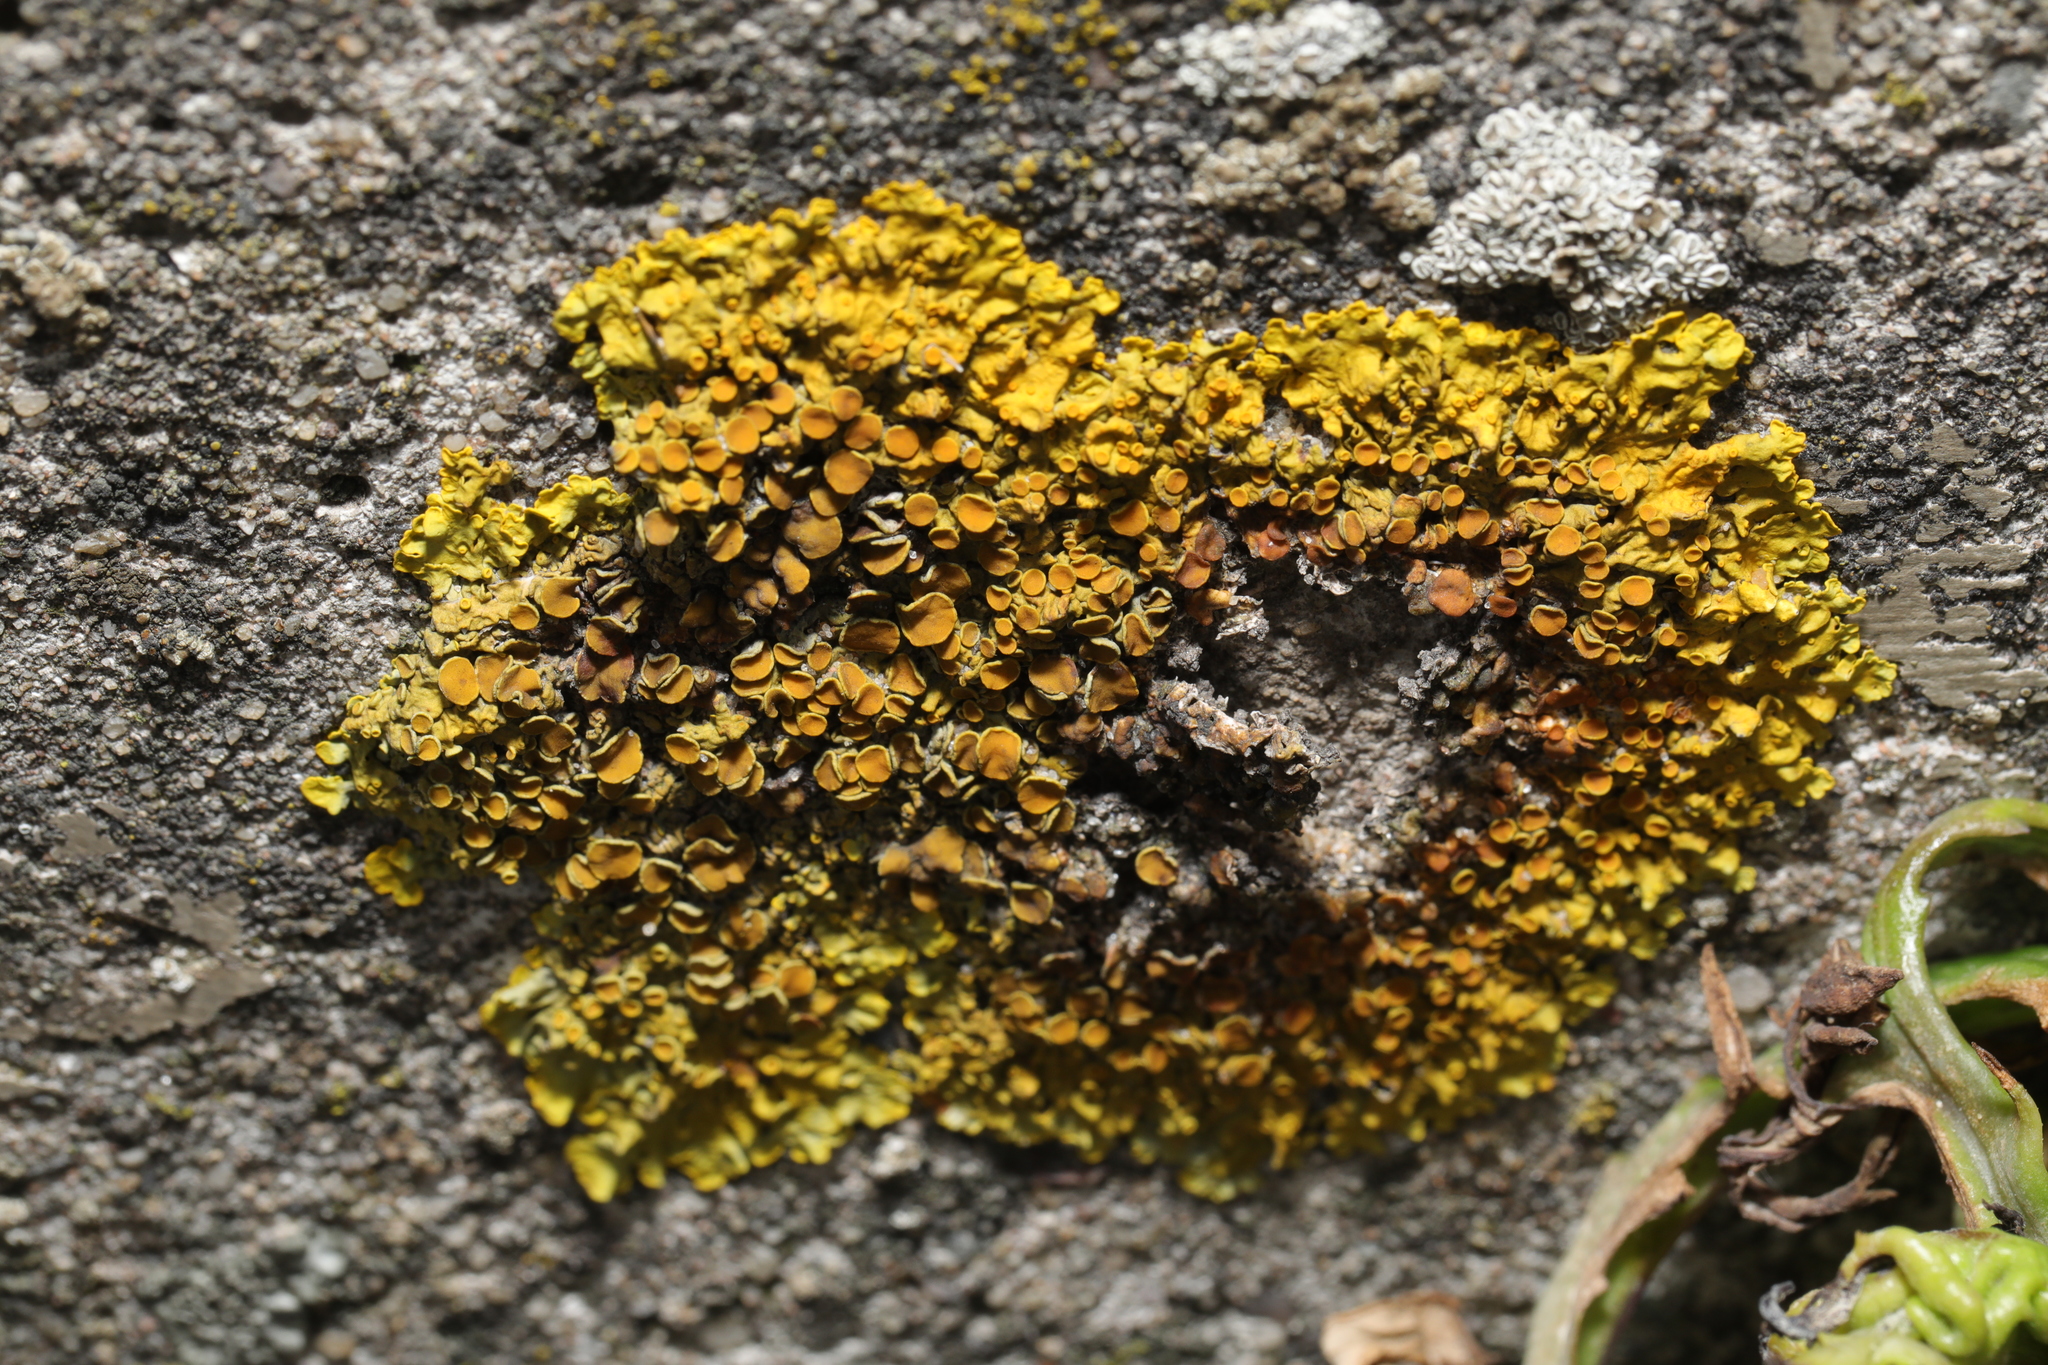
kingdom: Fungi
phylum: Ascomycota
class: Lecanoromycetes
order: Teloschistales
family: Teloschistaceae
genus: Xanthoria
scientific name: Xanthoria parietina
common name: Common orange lichen
